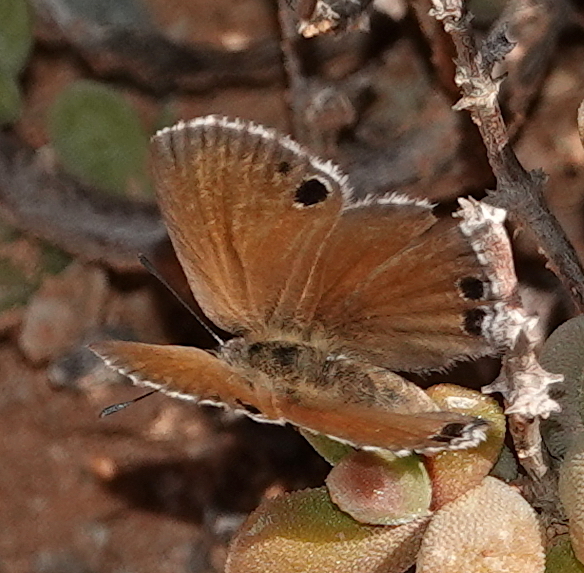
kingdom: Animalia
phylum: Arthropoda
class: Insecta
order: Lepidoptera
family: Lycaenidae
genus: Leptomyrina
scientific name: Leptomyrina lara
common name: Cape black-eye
